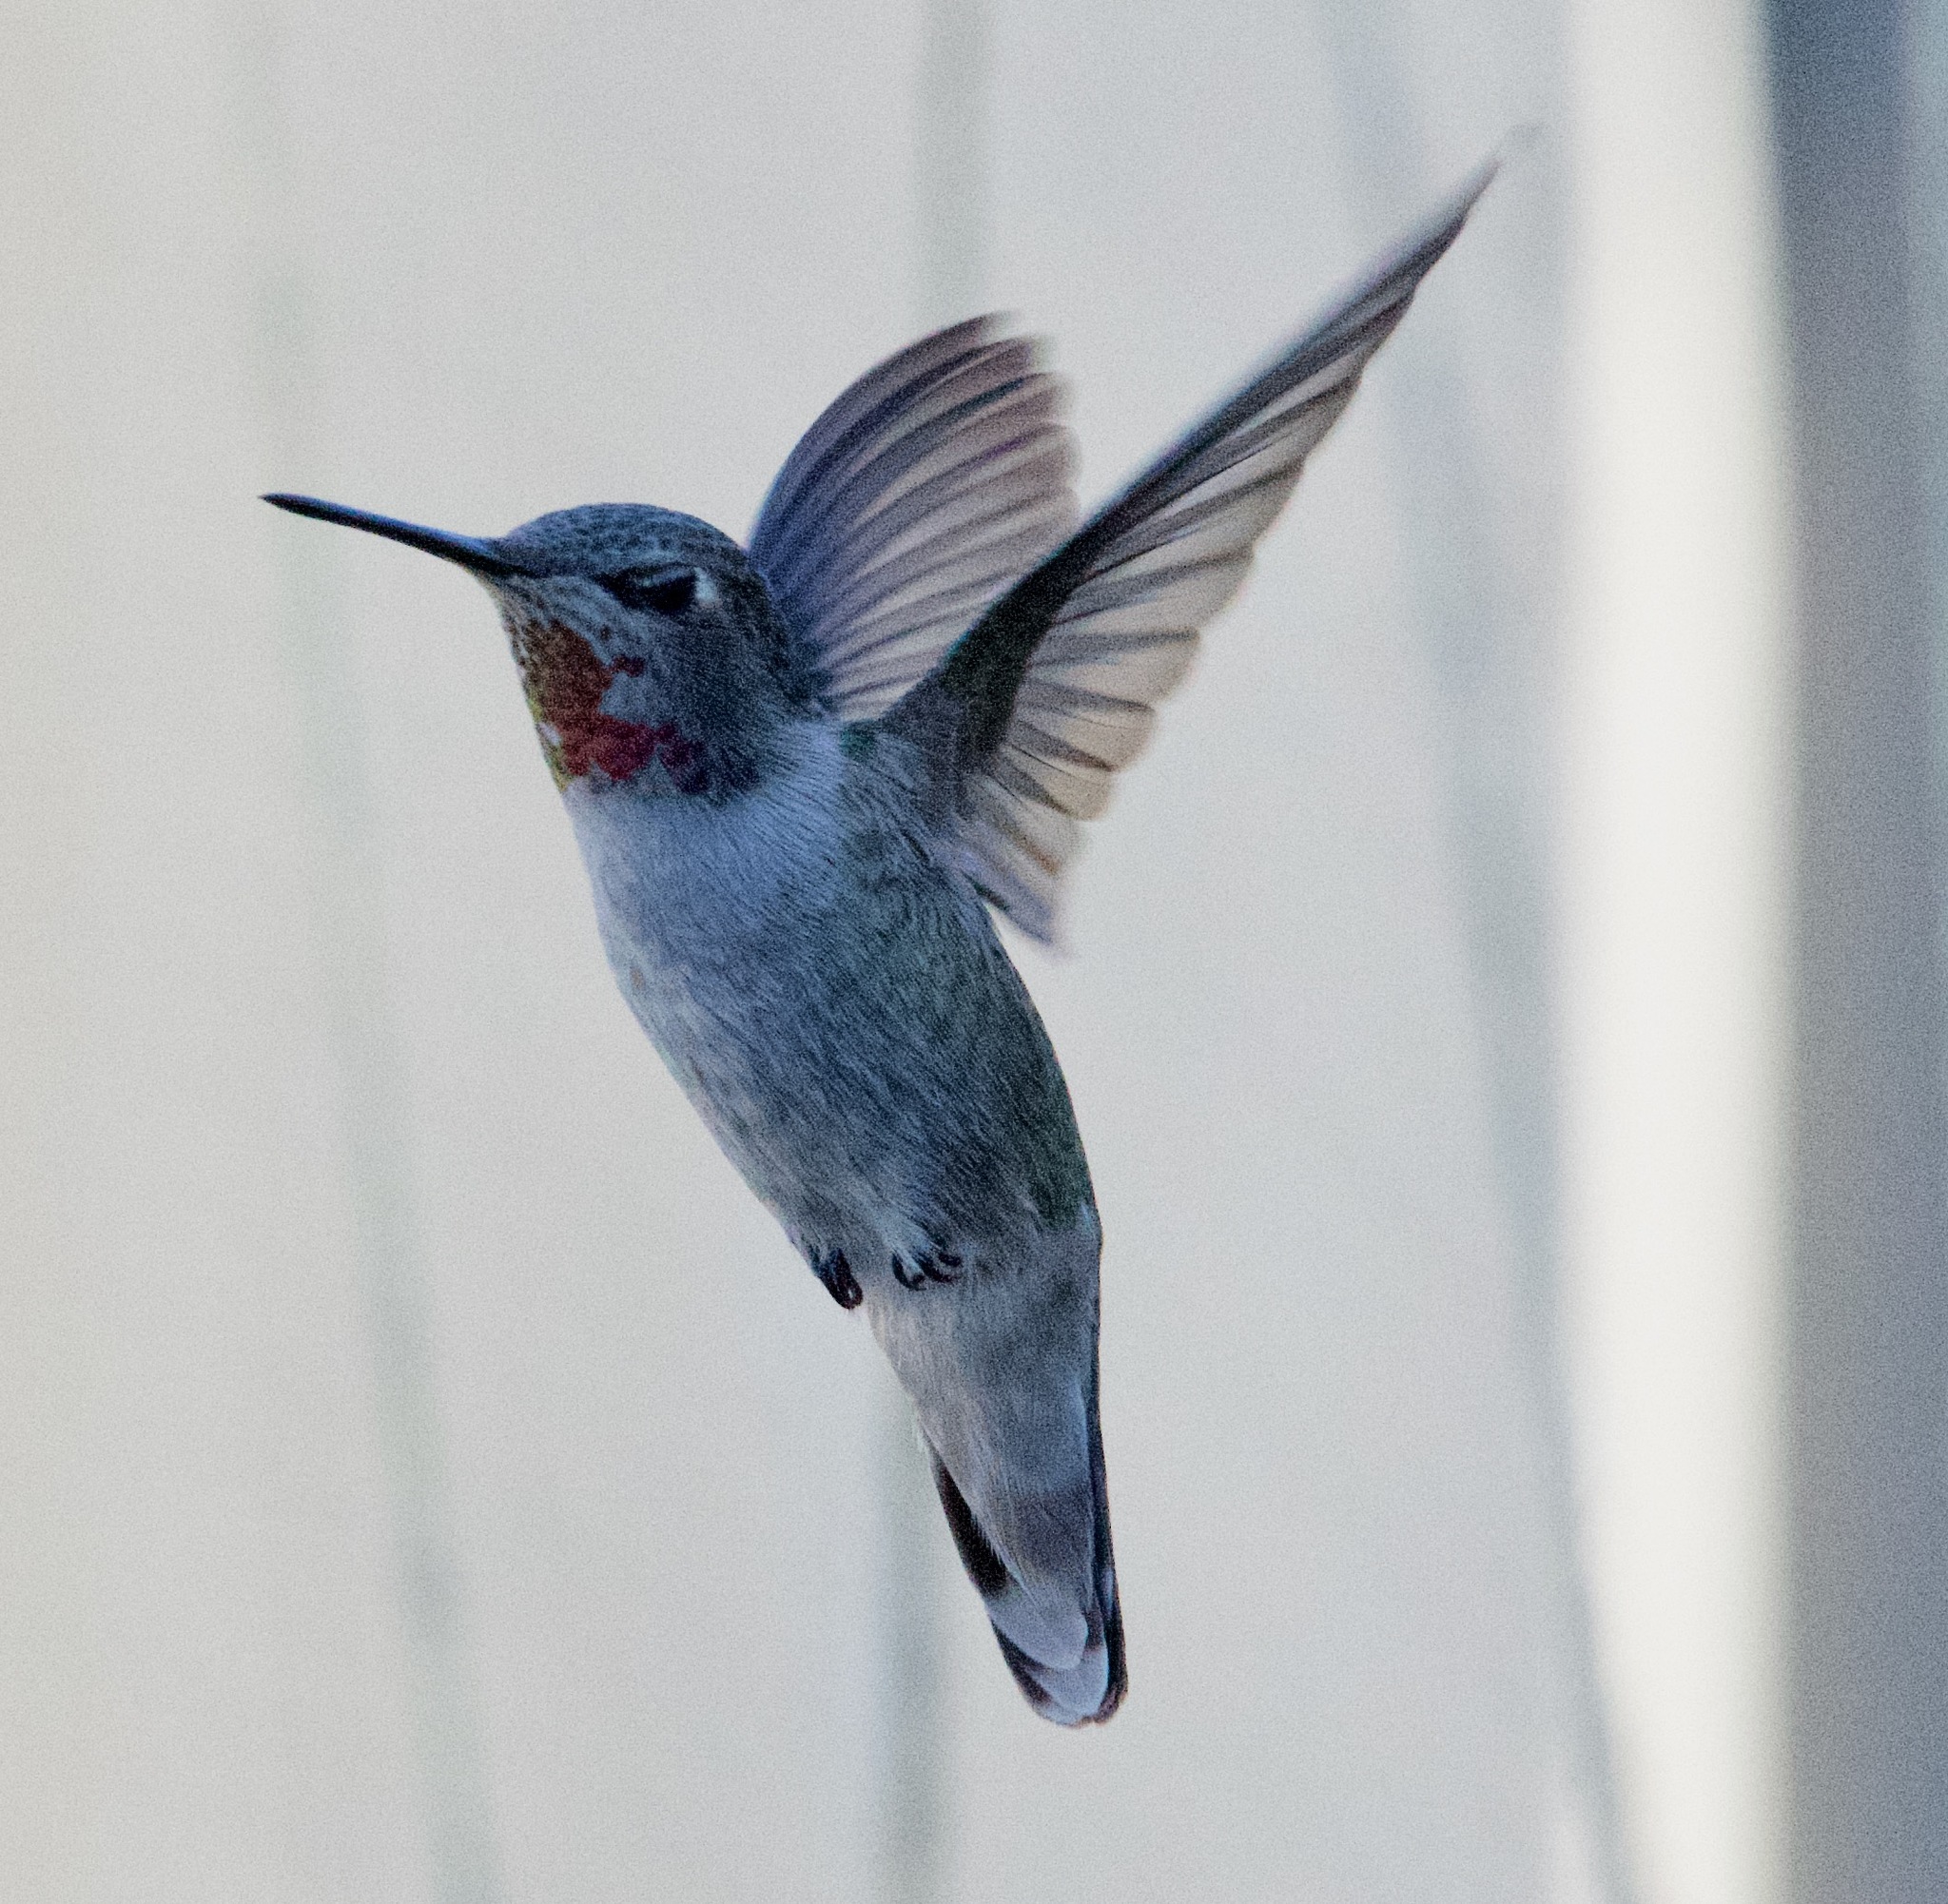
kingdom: Animalia
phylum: Chordata
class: Aves
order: Apodiformes
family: Trochilidae
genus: Calypte
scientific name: Calypte anna
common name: Anna's hummingbird
